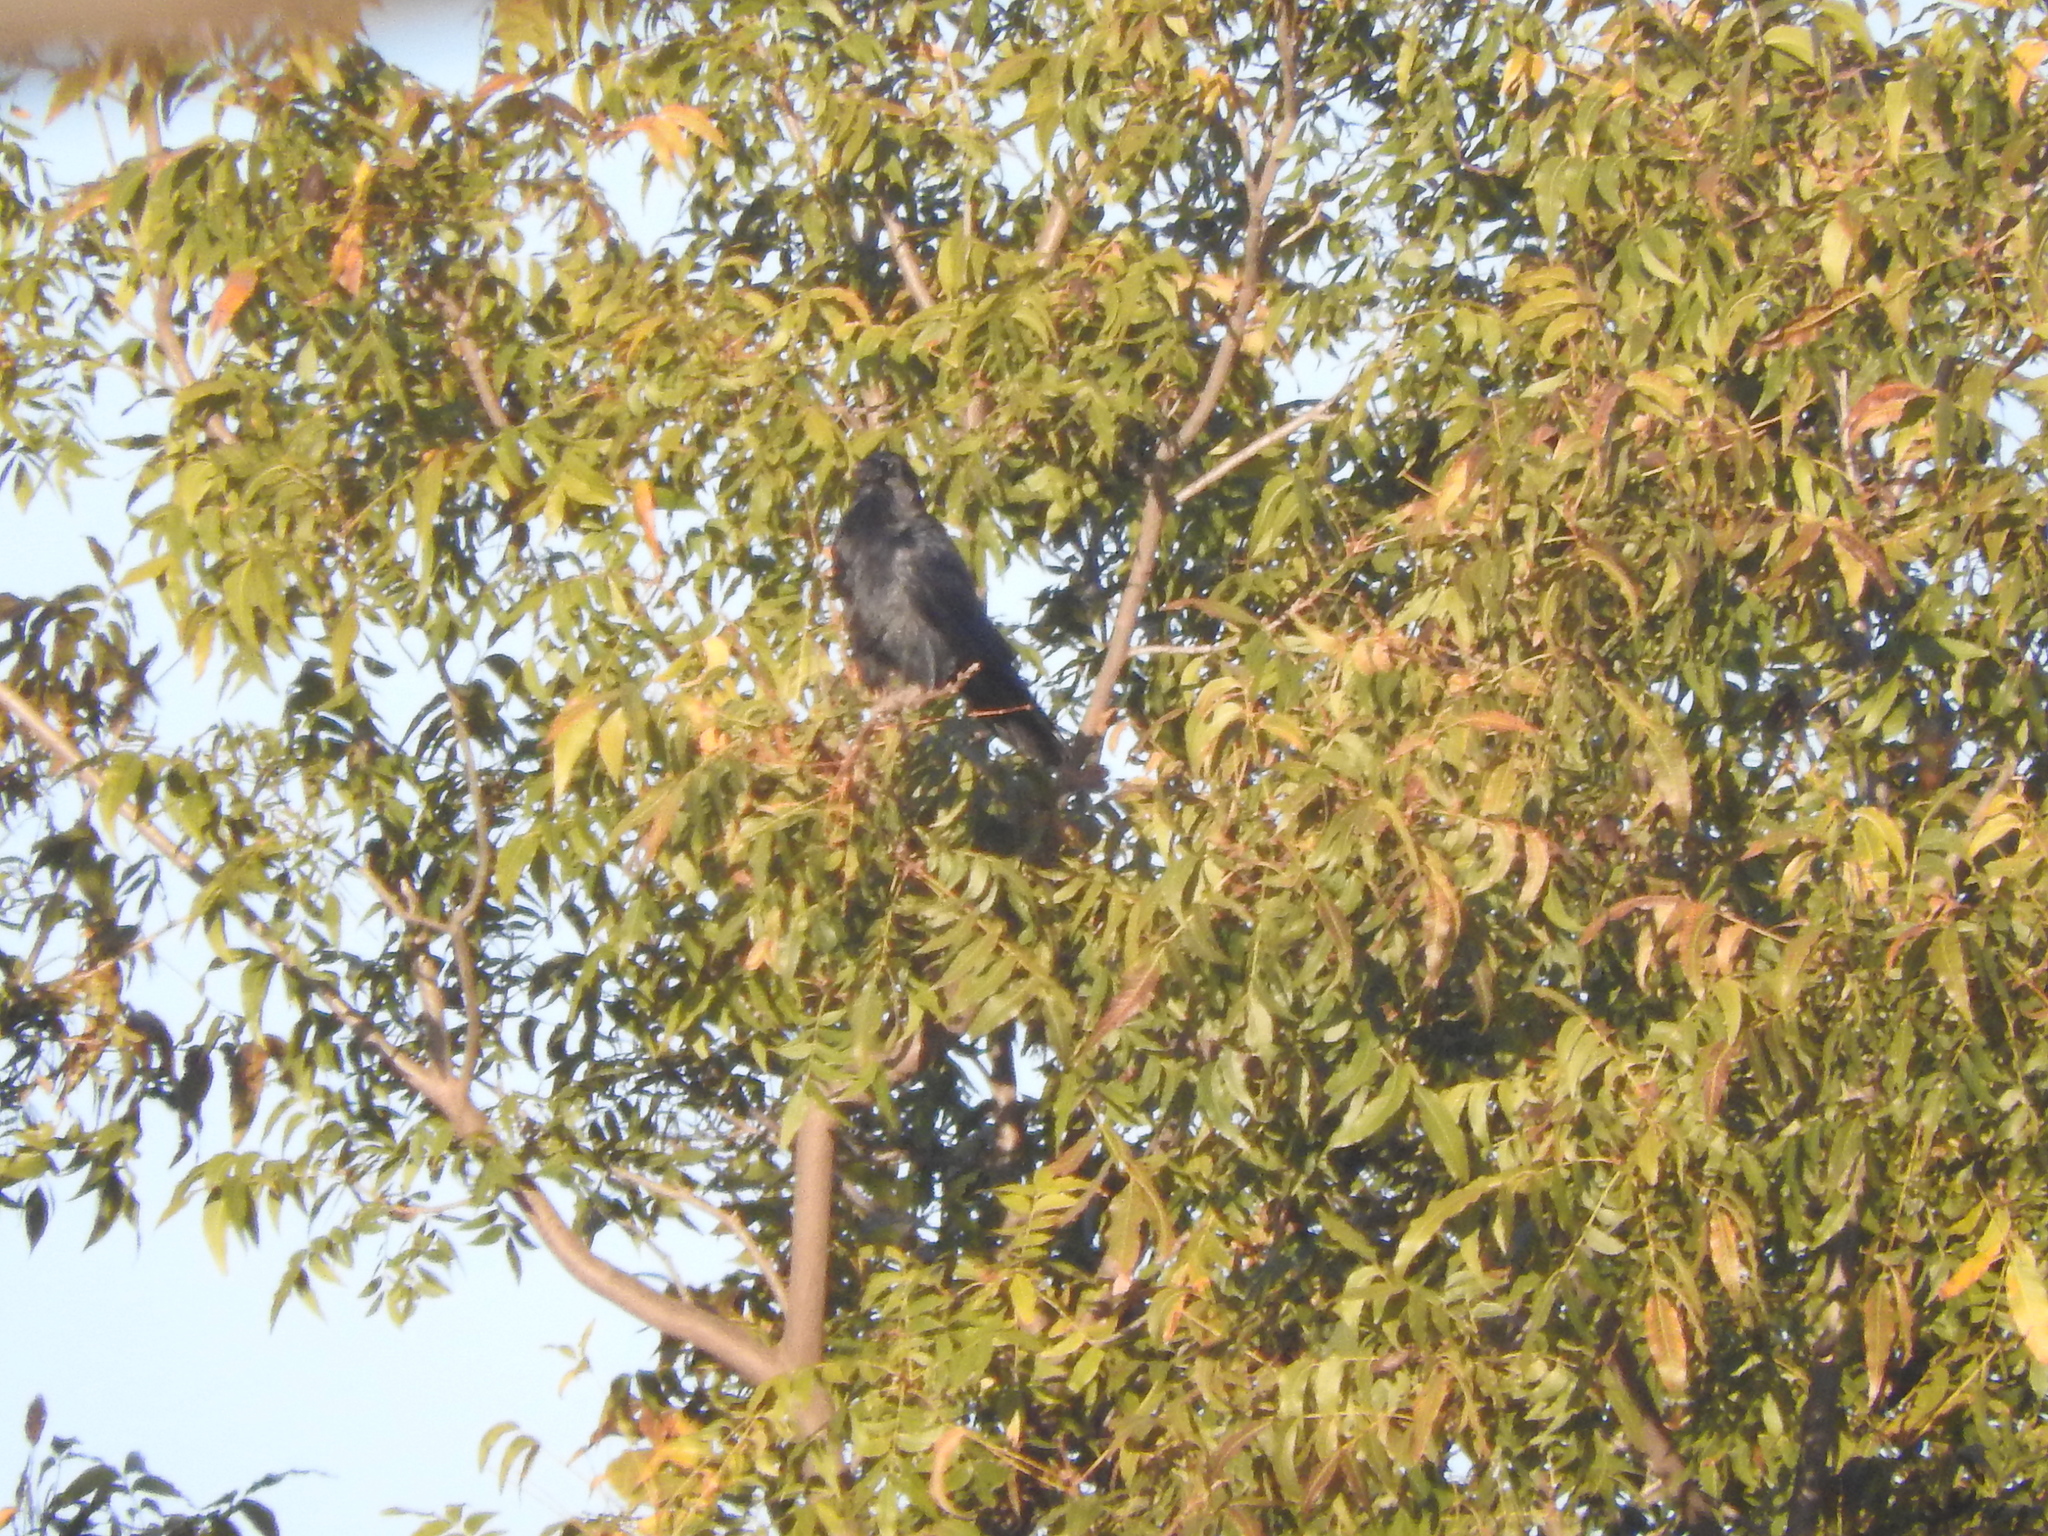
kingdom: Animalia
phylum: Chordata
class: Aves
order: Passeriformes
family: Corvidae
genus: Corvus
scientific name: Corvus corax
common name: Common raven
